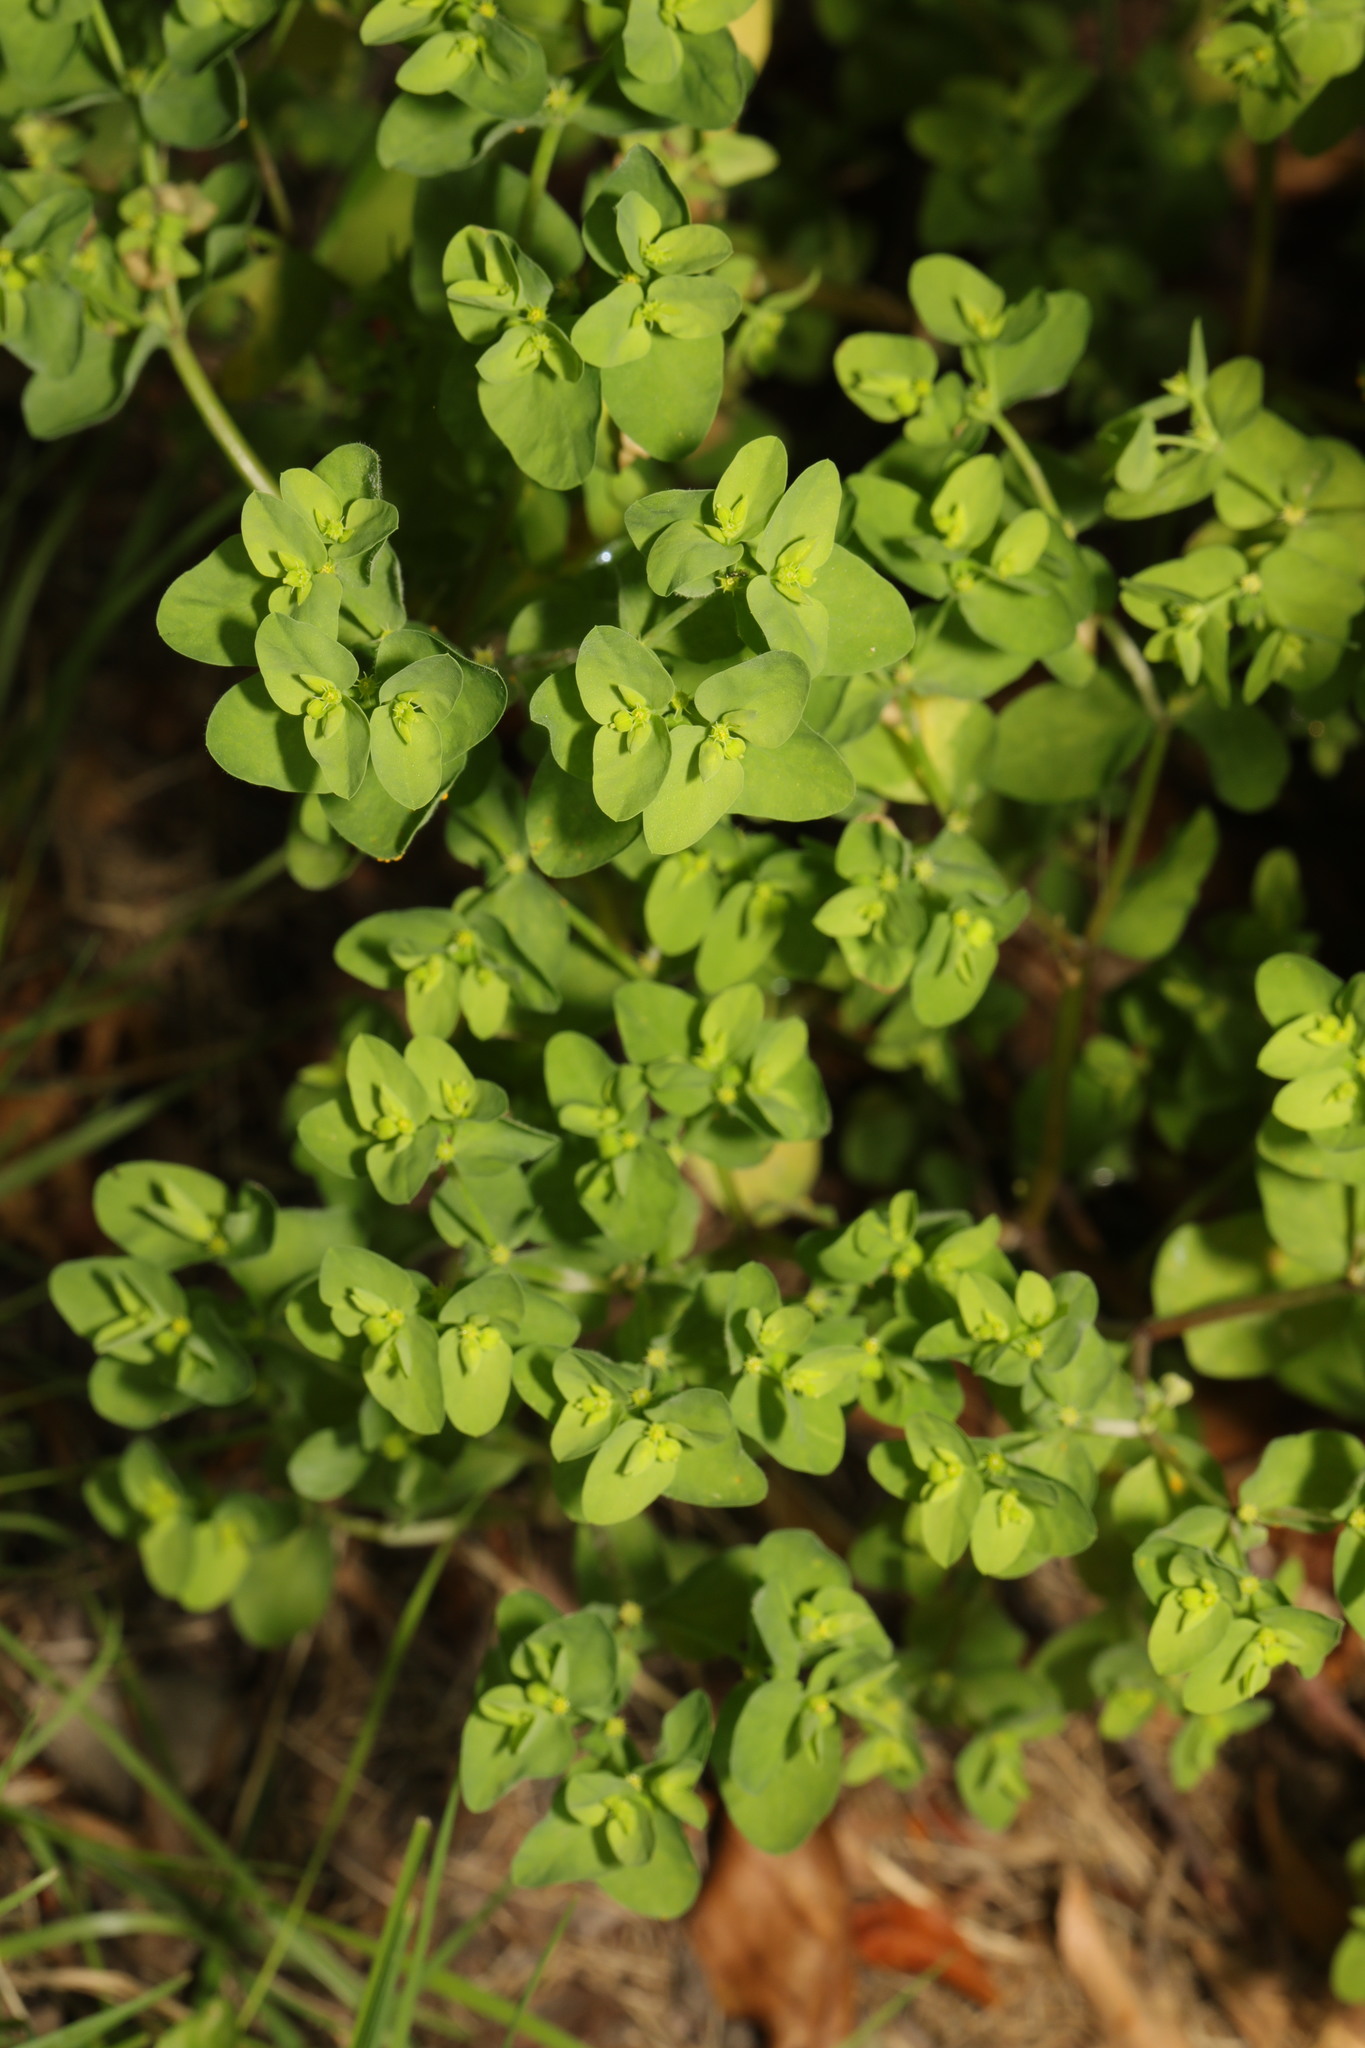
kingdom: Plantae
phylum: Tracheophyta
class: Magnoliopsida
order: Malpighiales
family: Euphorbiaceae
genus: Euphorbia
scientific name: Euphorbia peplus
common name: Petty spurge
